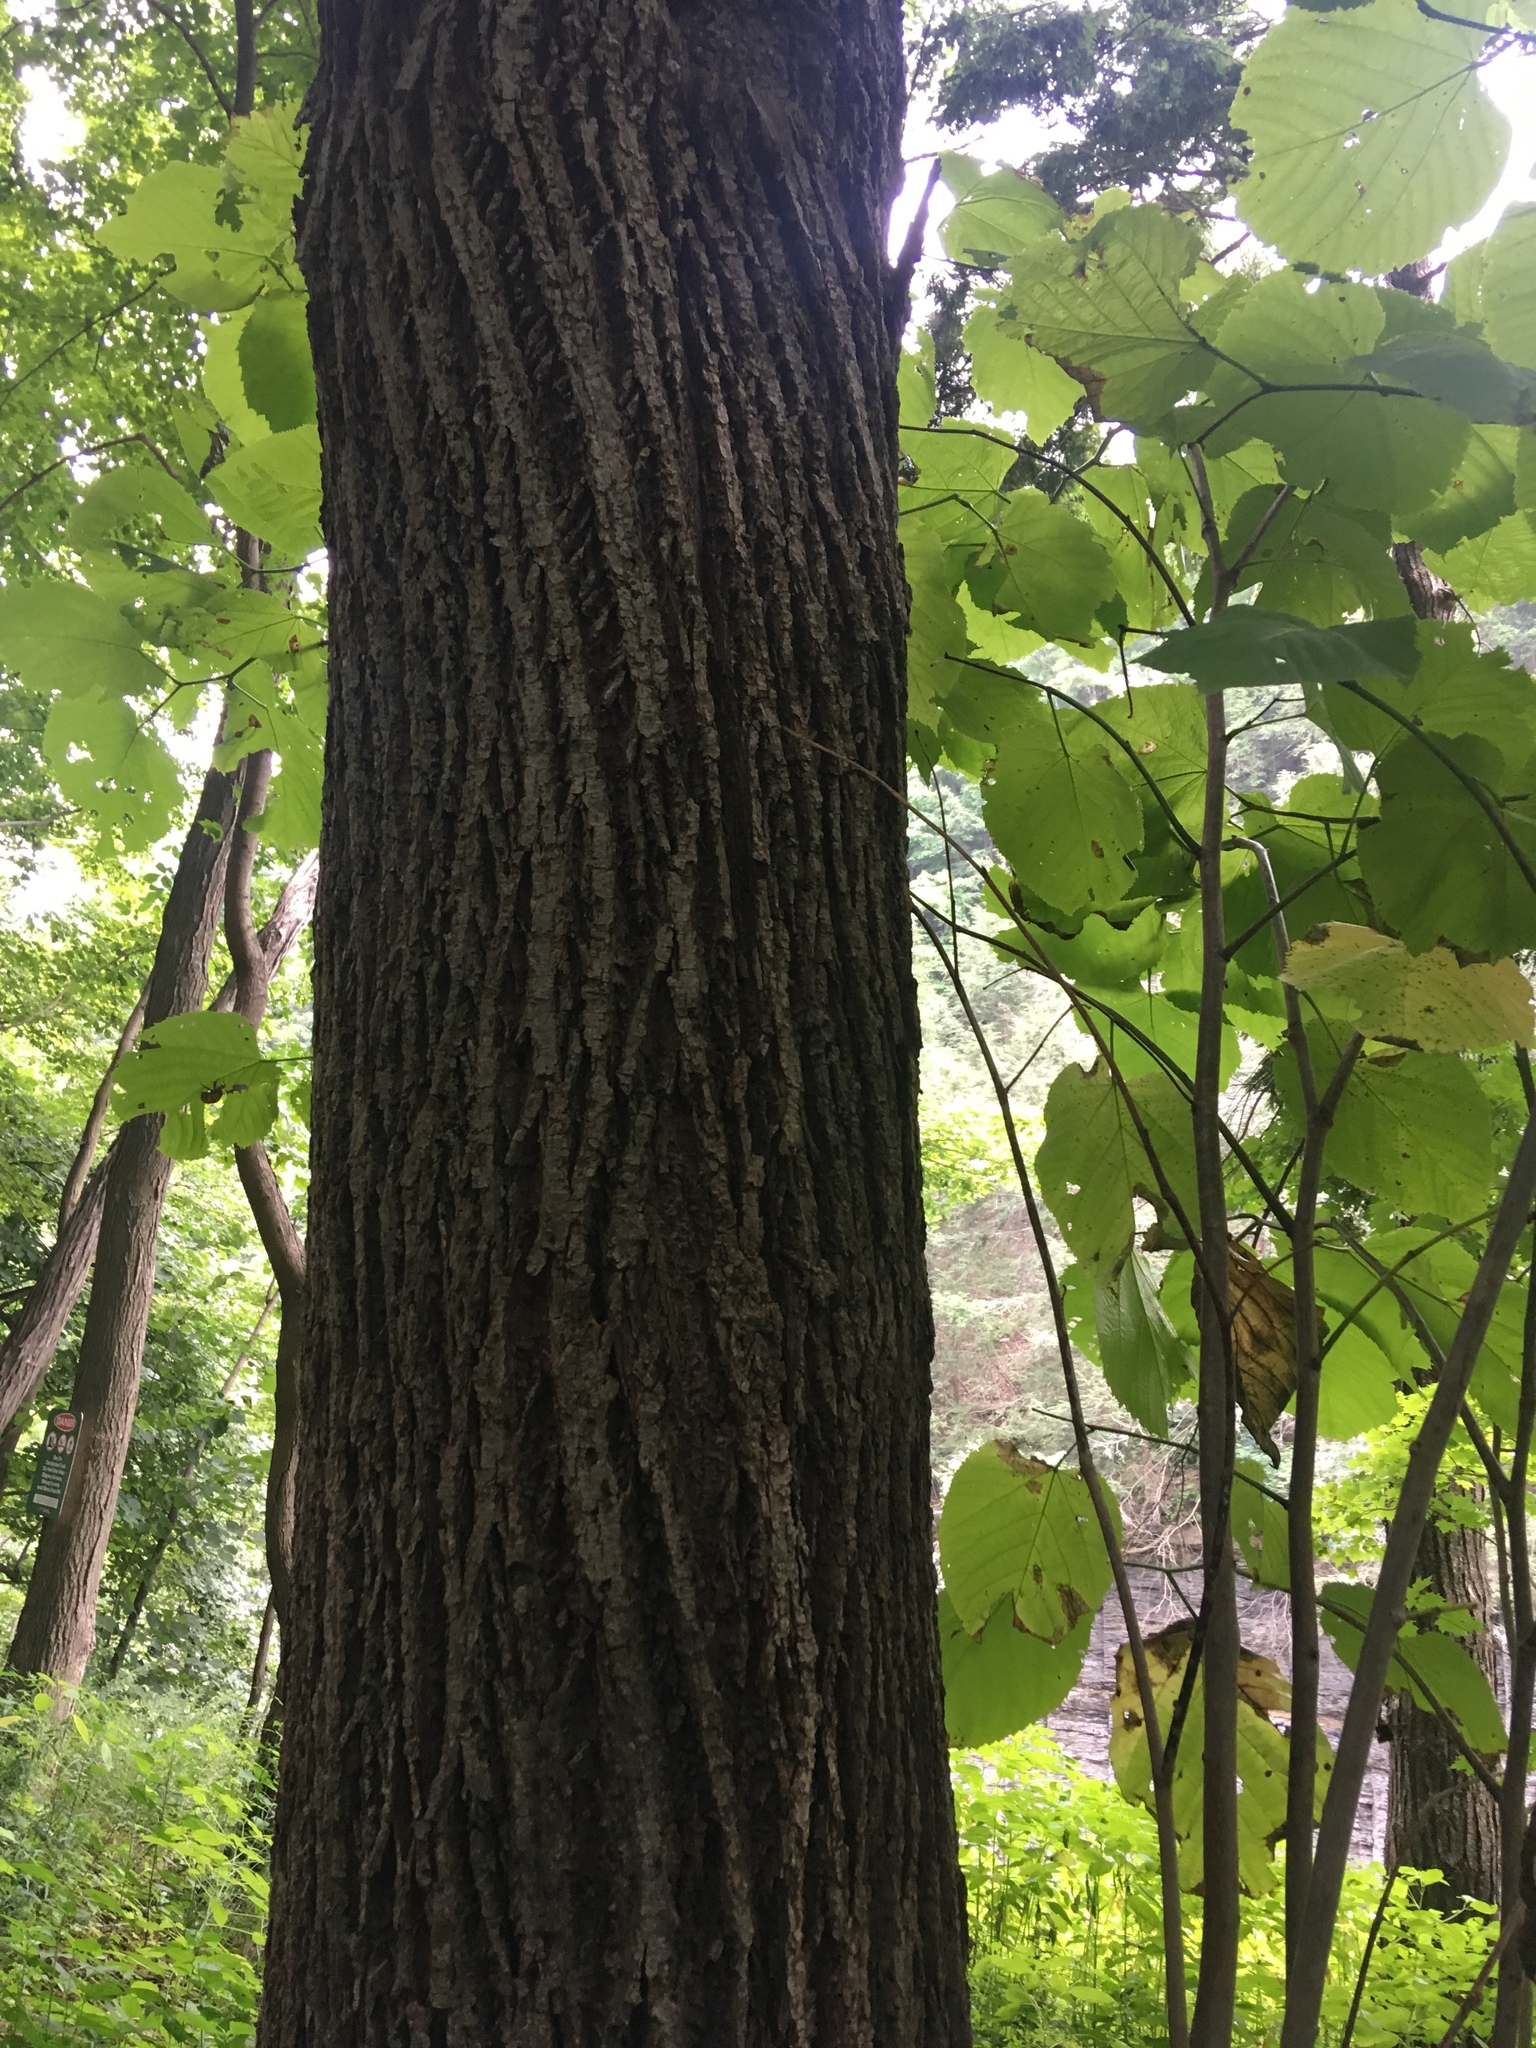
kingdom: Plantae
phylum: Tracheophyta
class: Magnoliopsida
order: Malvales
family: Malvaceae
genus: Tilia
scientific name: Tilia americana
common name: Basswood
